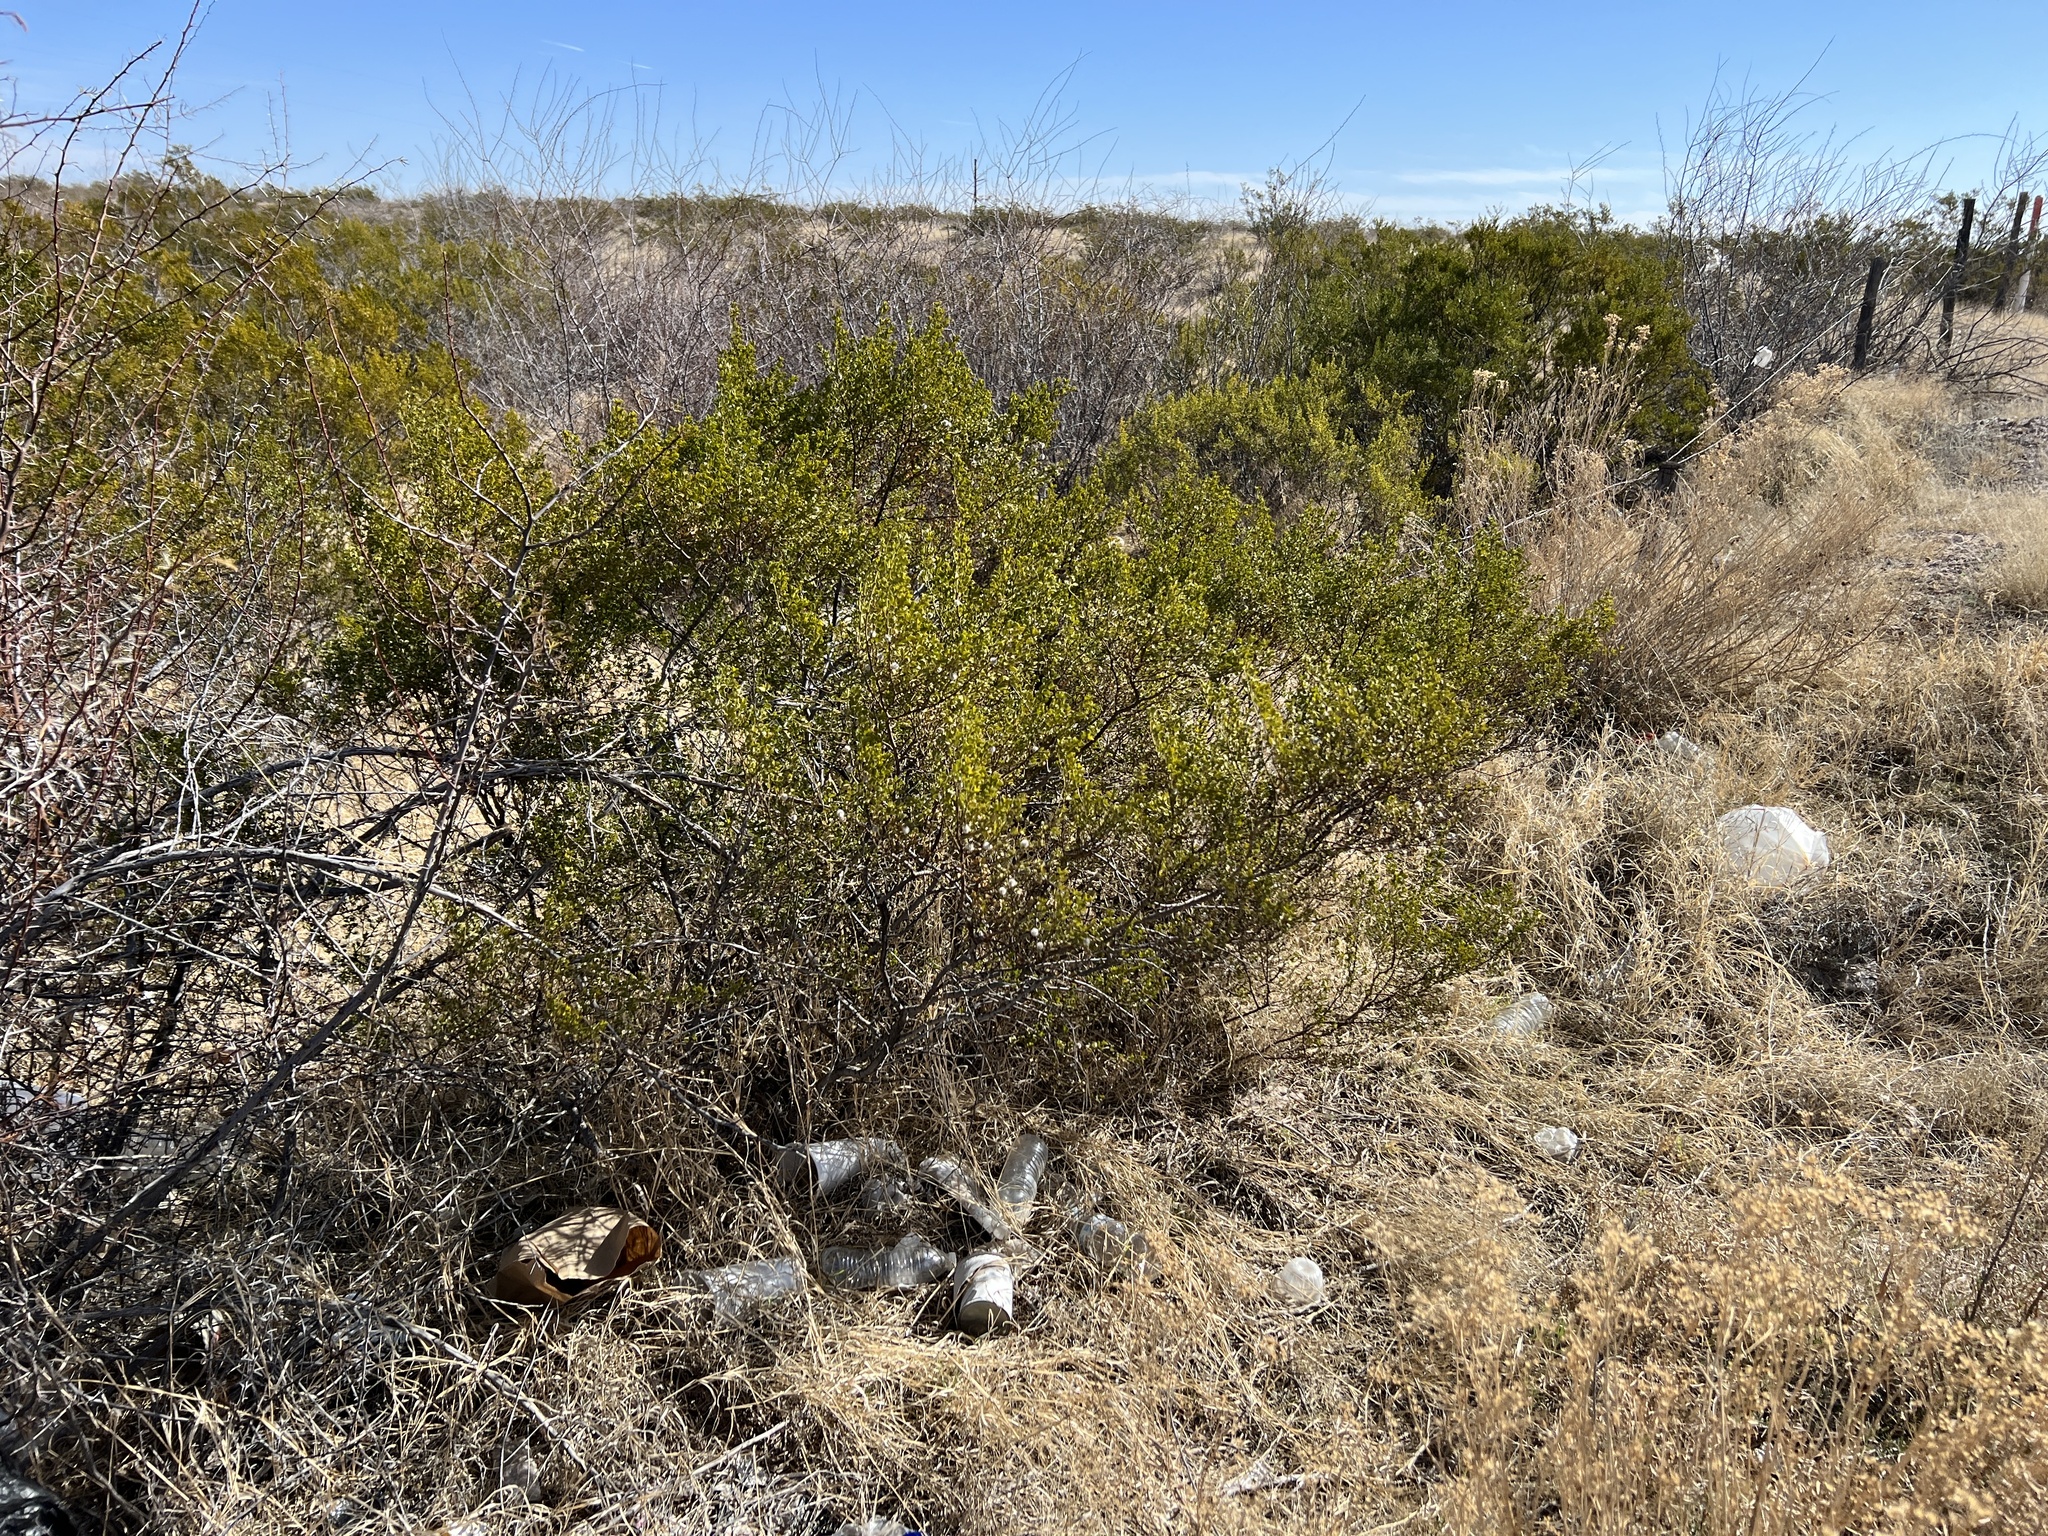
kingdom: Plantae
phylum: Tracheophyta
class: Magnoliopsida
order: Zygophyllales
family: Zygophyllaceae
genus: Larrea
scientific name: Larrea tridentata
